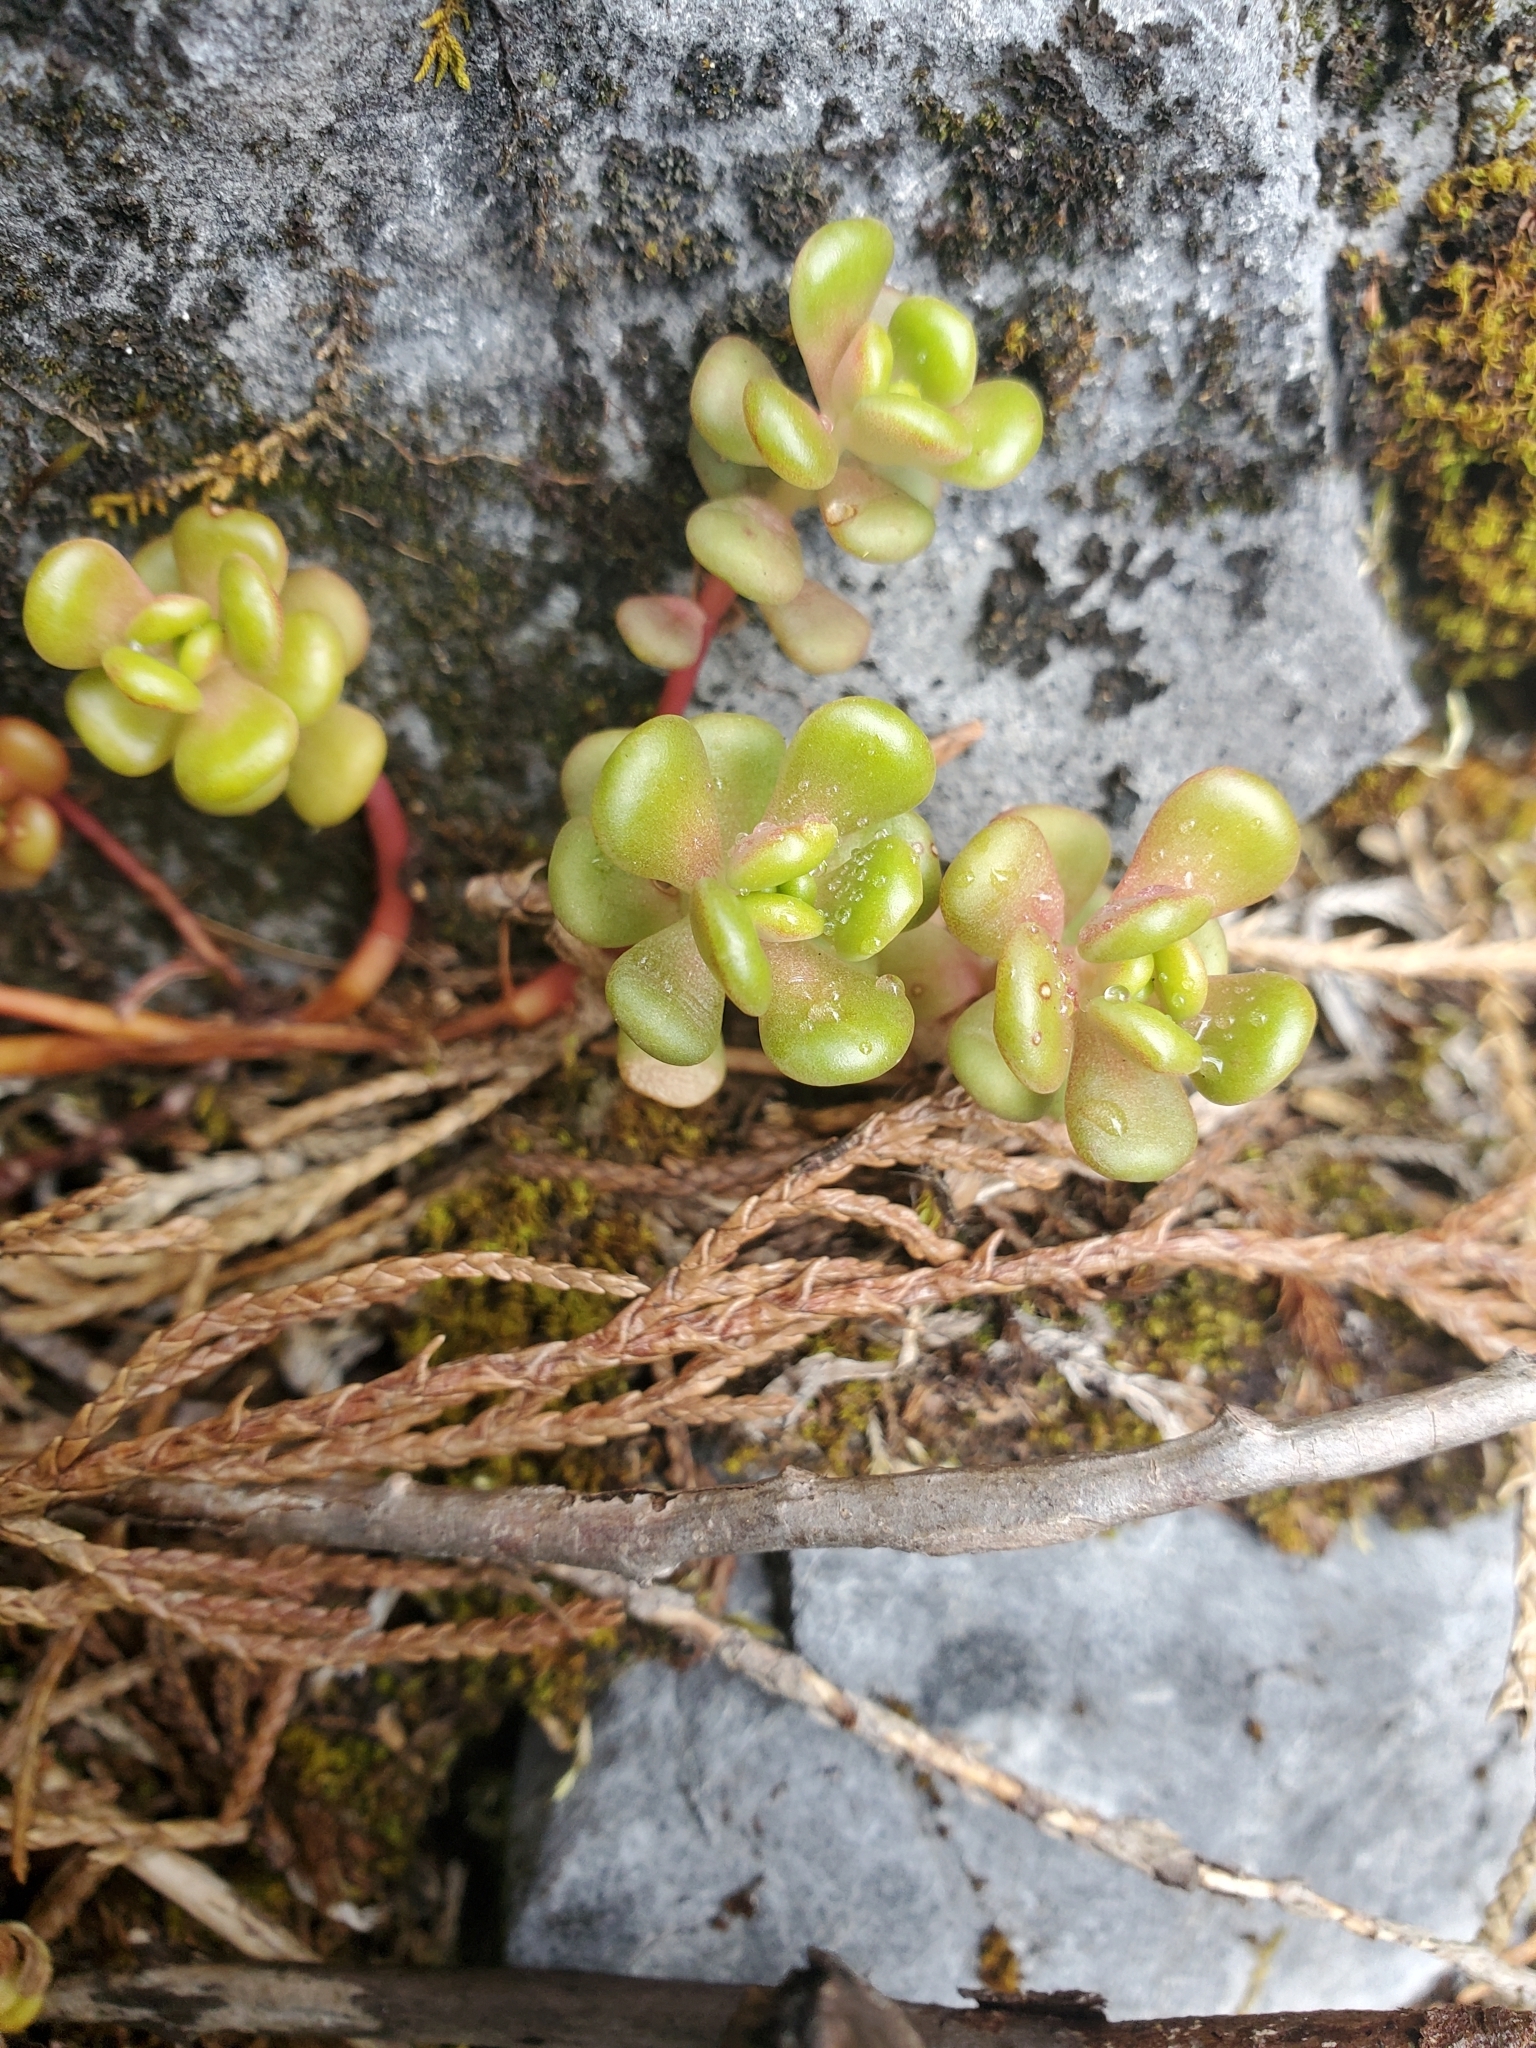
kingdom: Plantae
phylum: Tracheophyta
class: Magnoliopsida
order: Saxifragales
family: Crassulaceae
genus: Sedum
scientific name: Sedum oreganum
